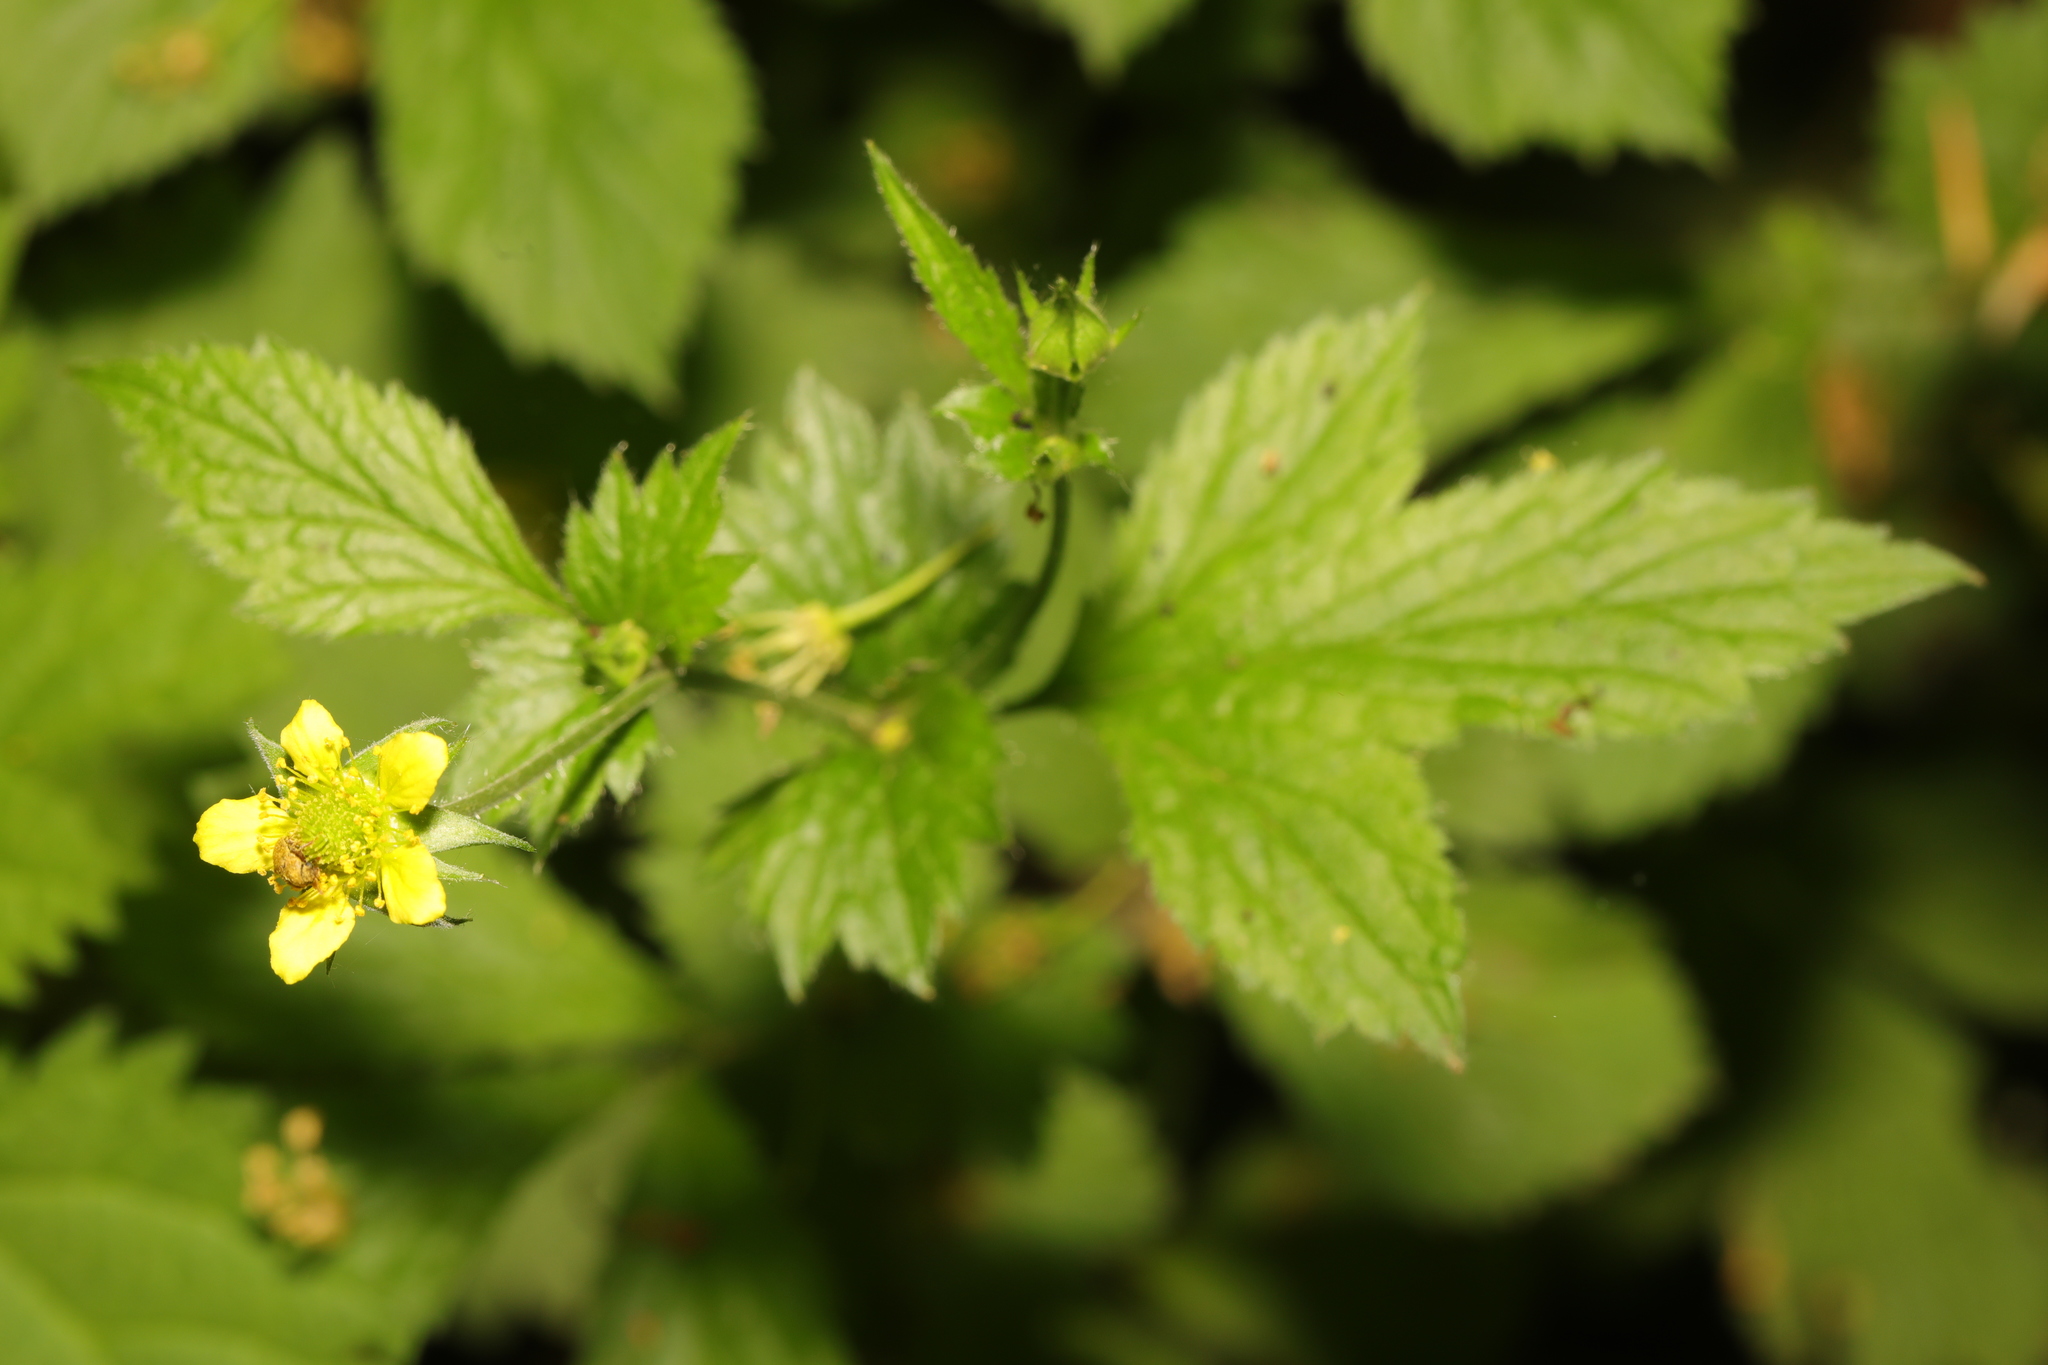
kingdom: Plantae
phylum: Tracheophyta
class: Magnoliopsida
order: Rosales
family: Rosaceae
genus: Geum
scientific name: Geum urbanum
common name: Wood avens
